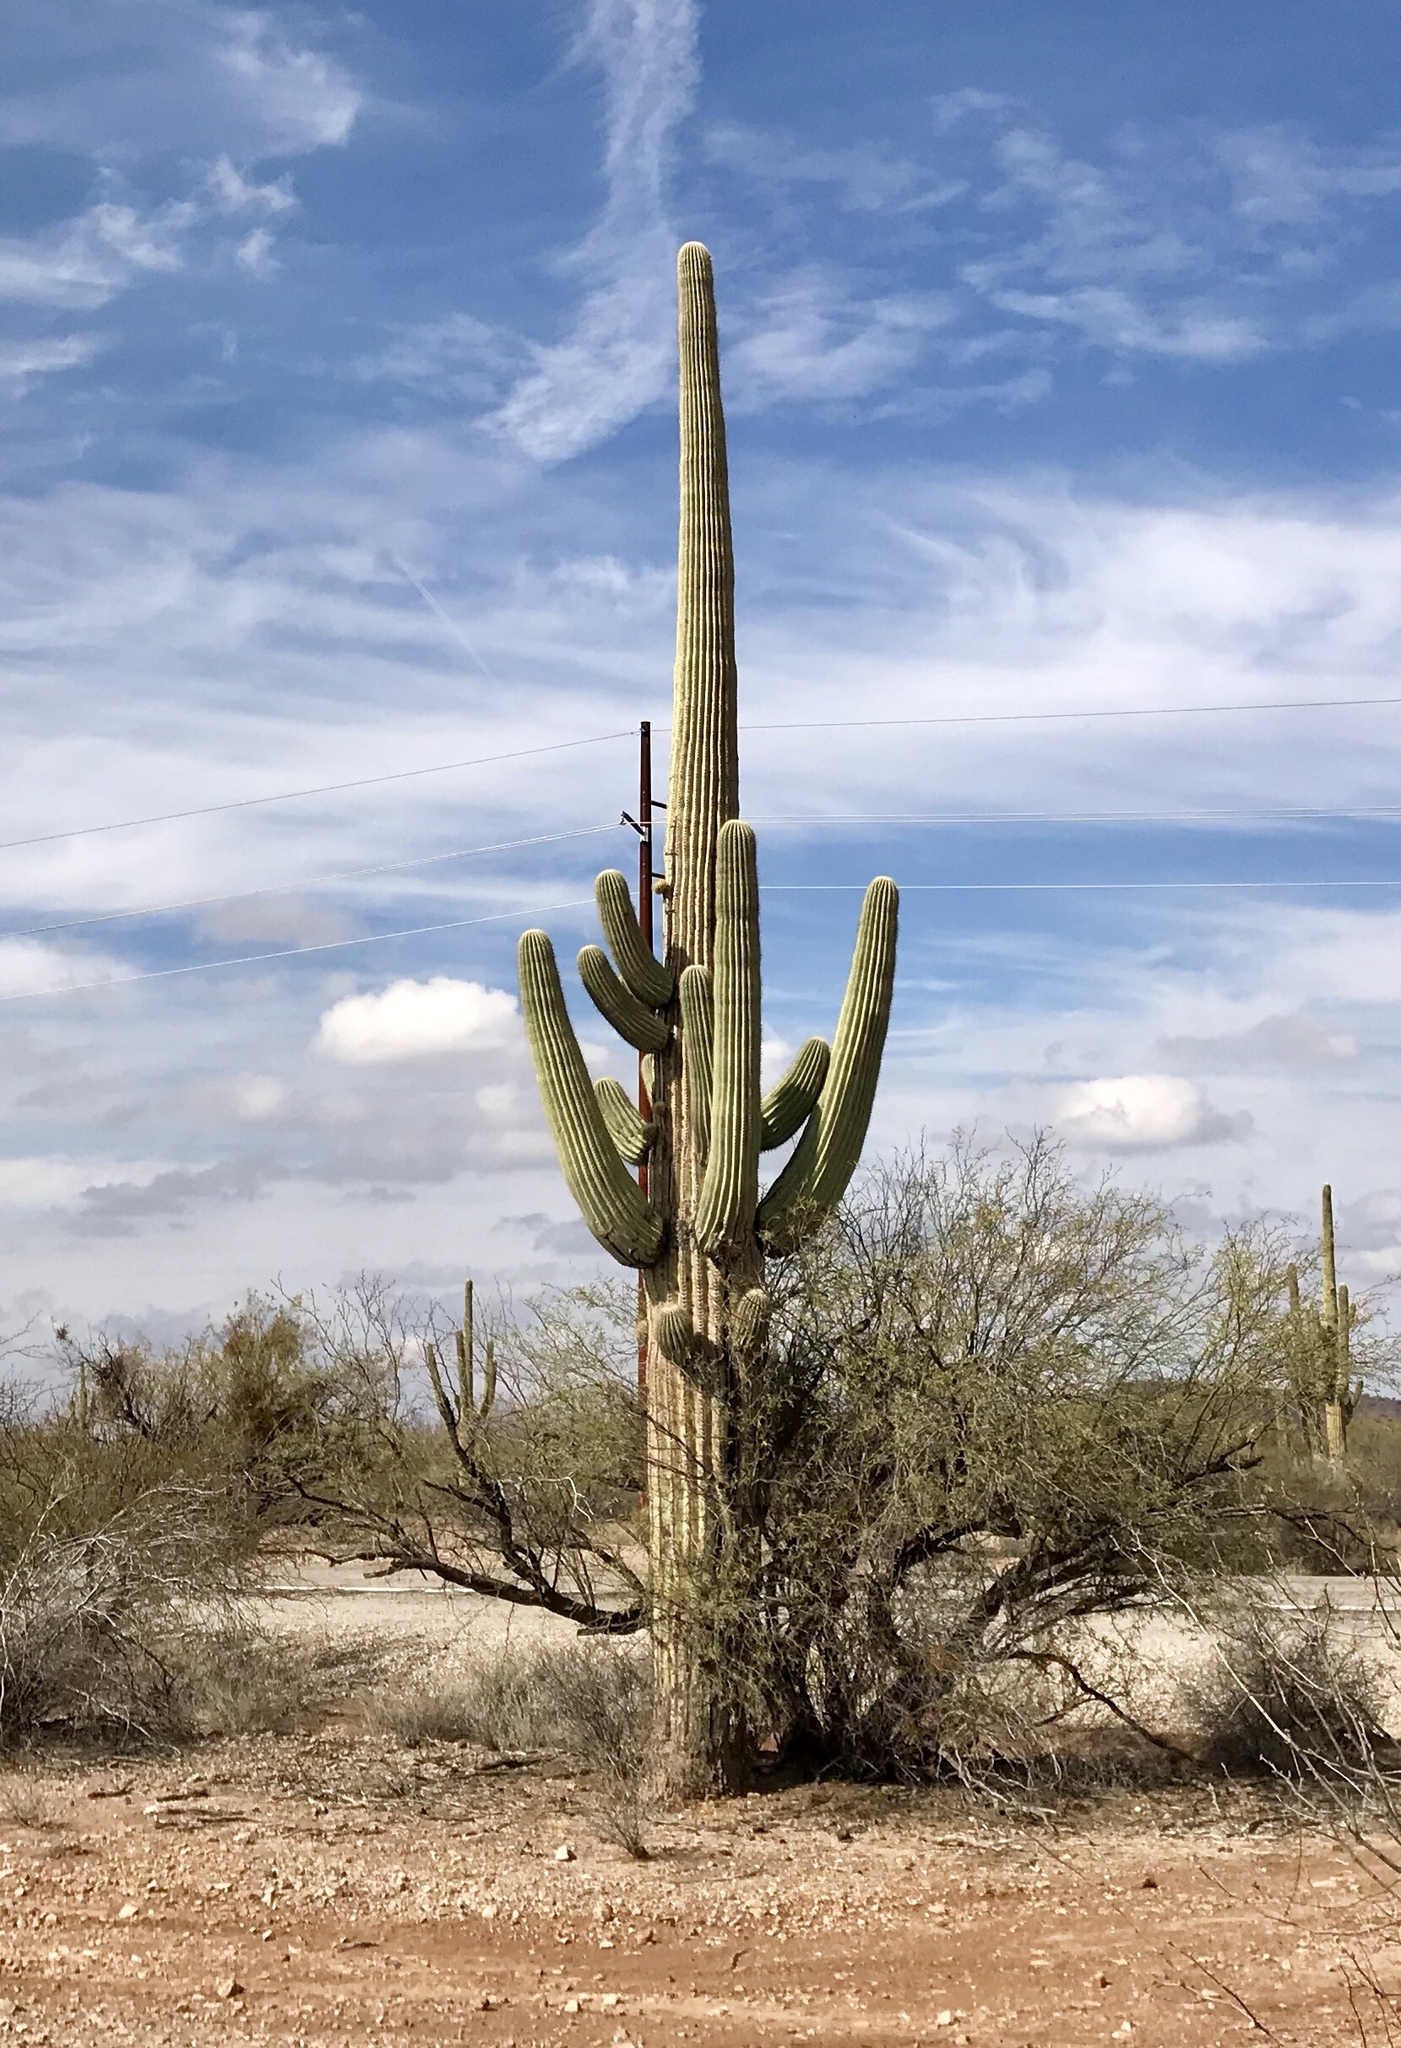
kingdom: Plantae
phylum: Tracheophyta
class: Magnoliopsida
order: Caryophyllales
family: Cactaceae
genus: Carnegiea
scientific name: Carnegiea gigantea
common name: Saguaro
